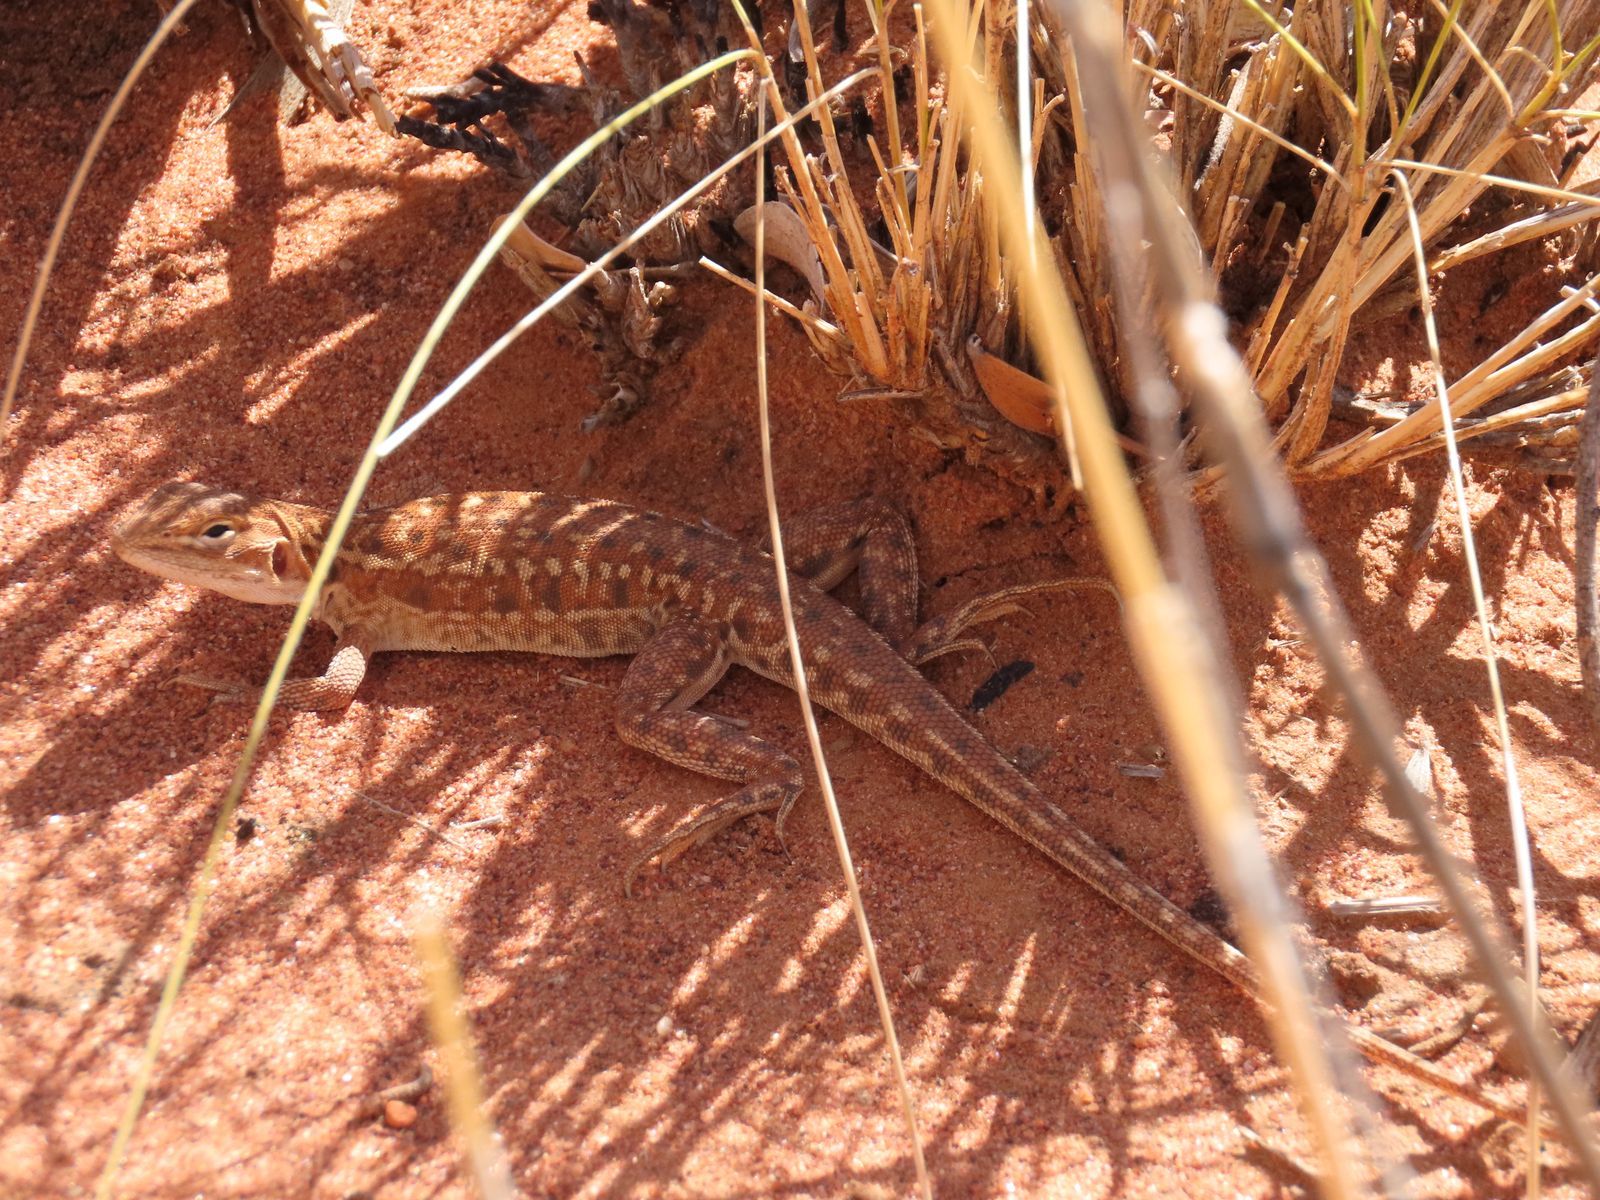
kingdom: Animalia
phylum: Chordata
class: Squamata
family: Agamidae
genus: Ctenophorus
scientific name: Ctenophorus isolepis
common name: Military dragon
